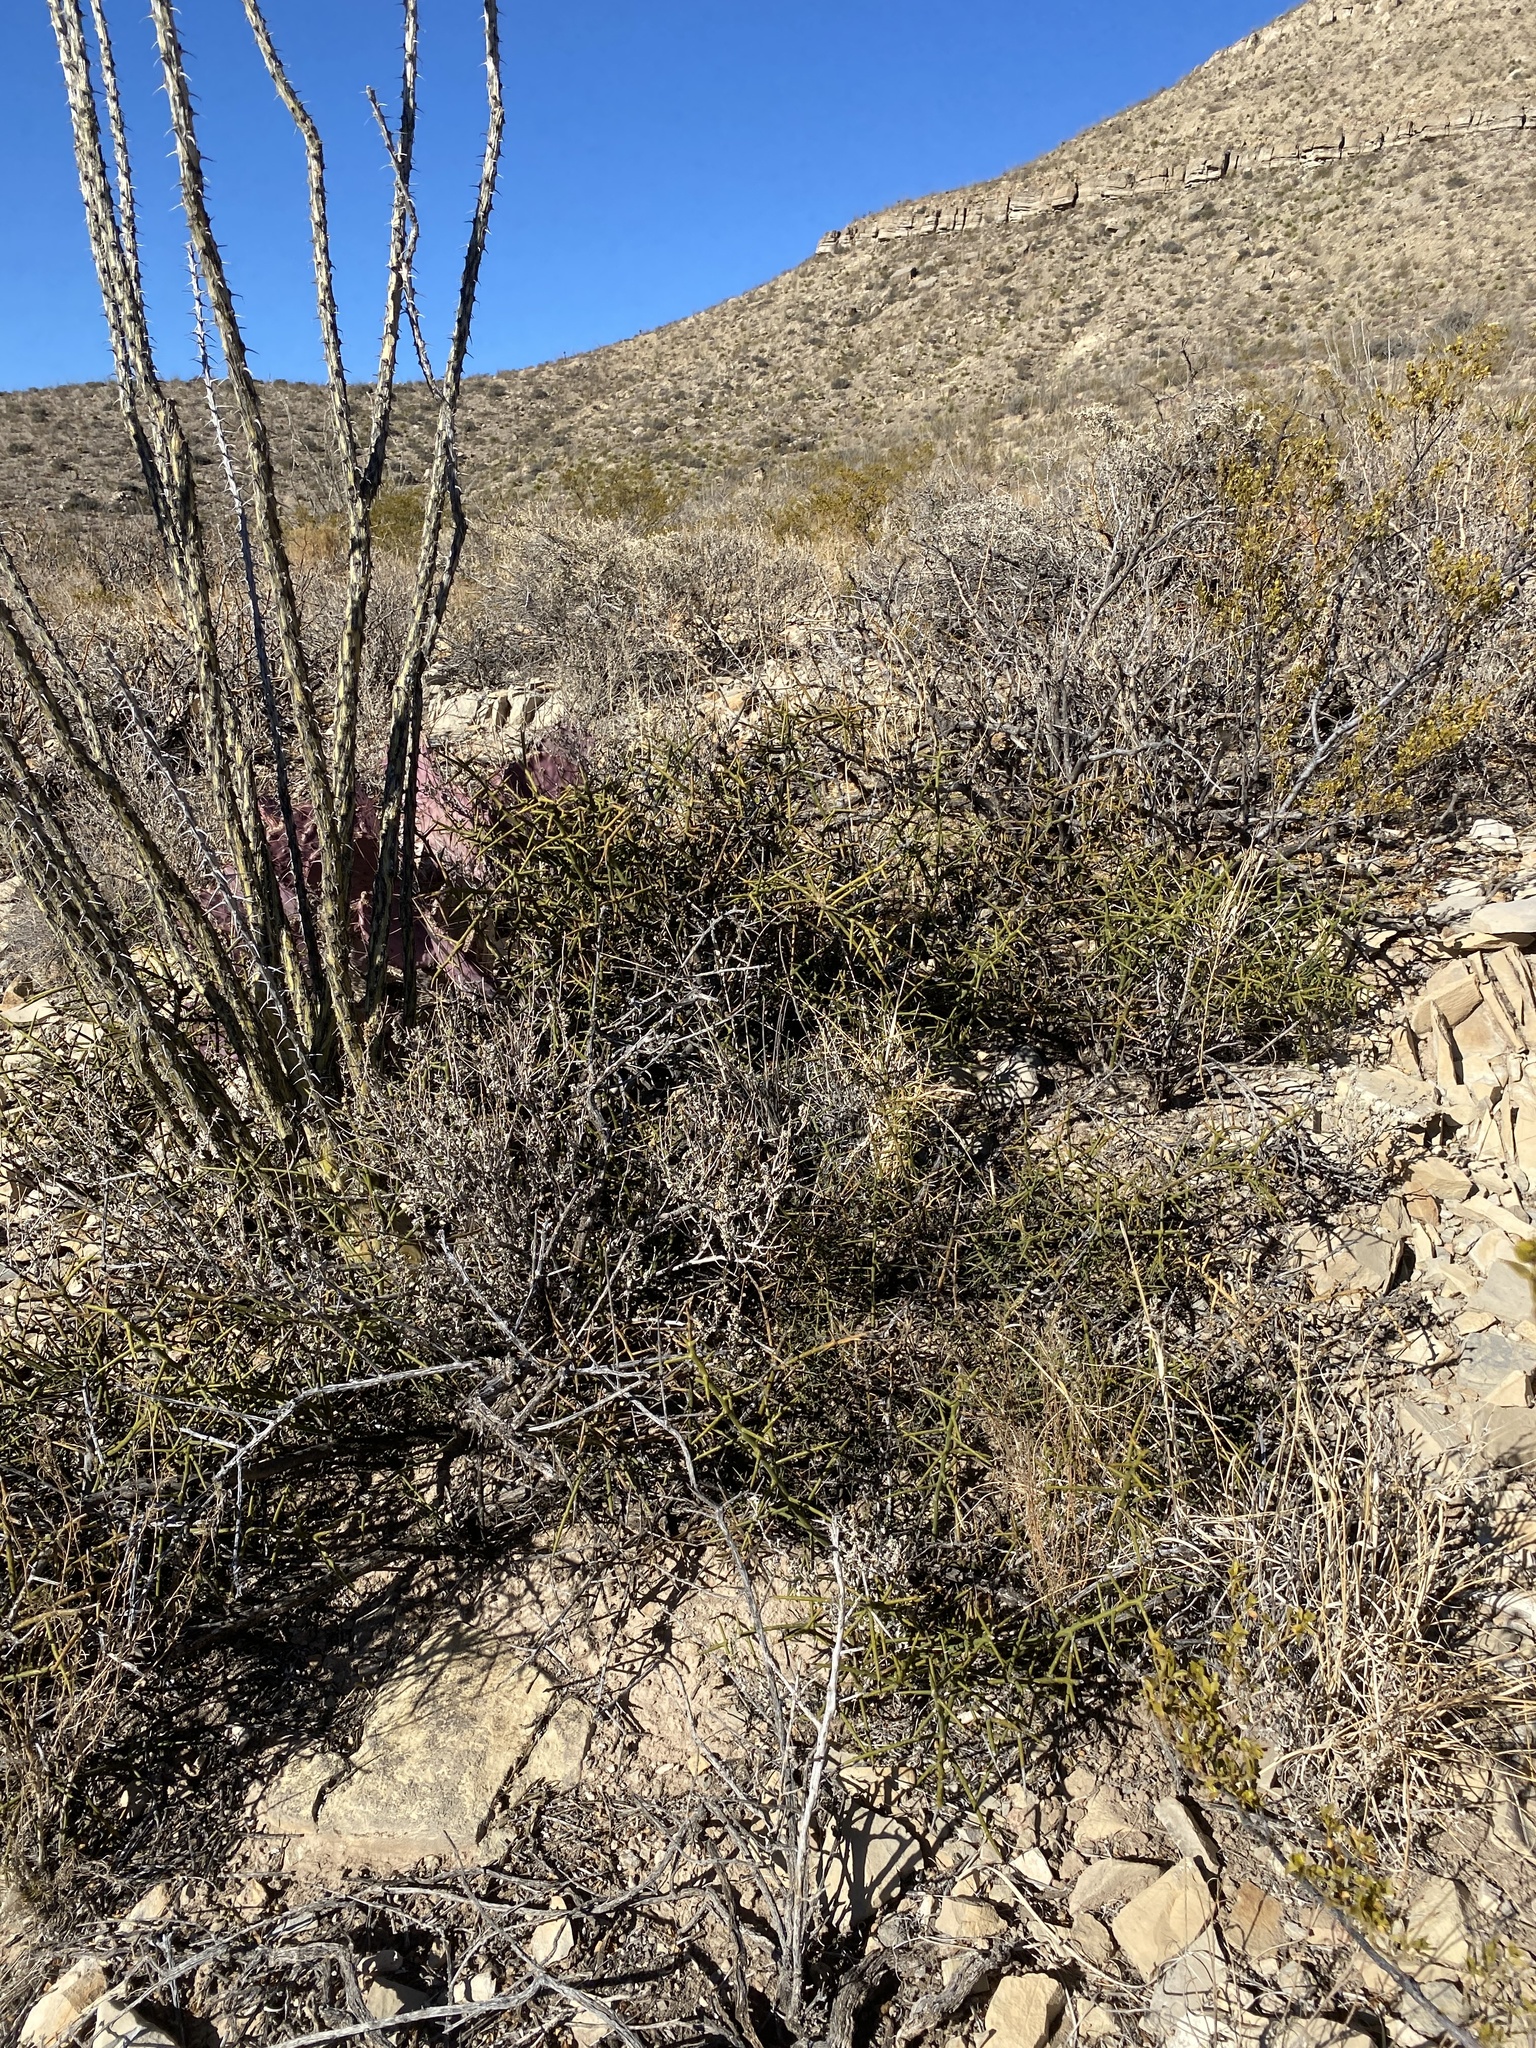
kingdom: Plantae
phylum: Tracheophyta
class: Magnoliopsida
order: Brassicales
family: Koeberliniaceae
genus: Koeberlinia
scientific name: Koeberlinia spinosa
